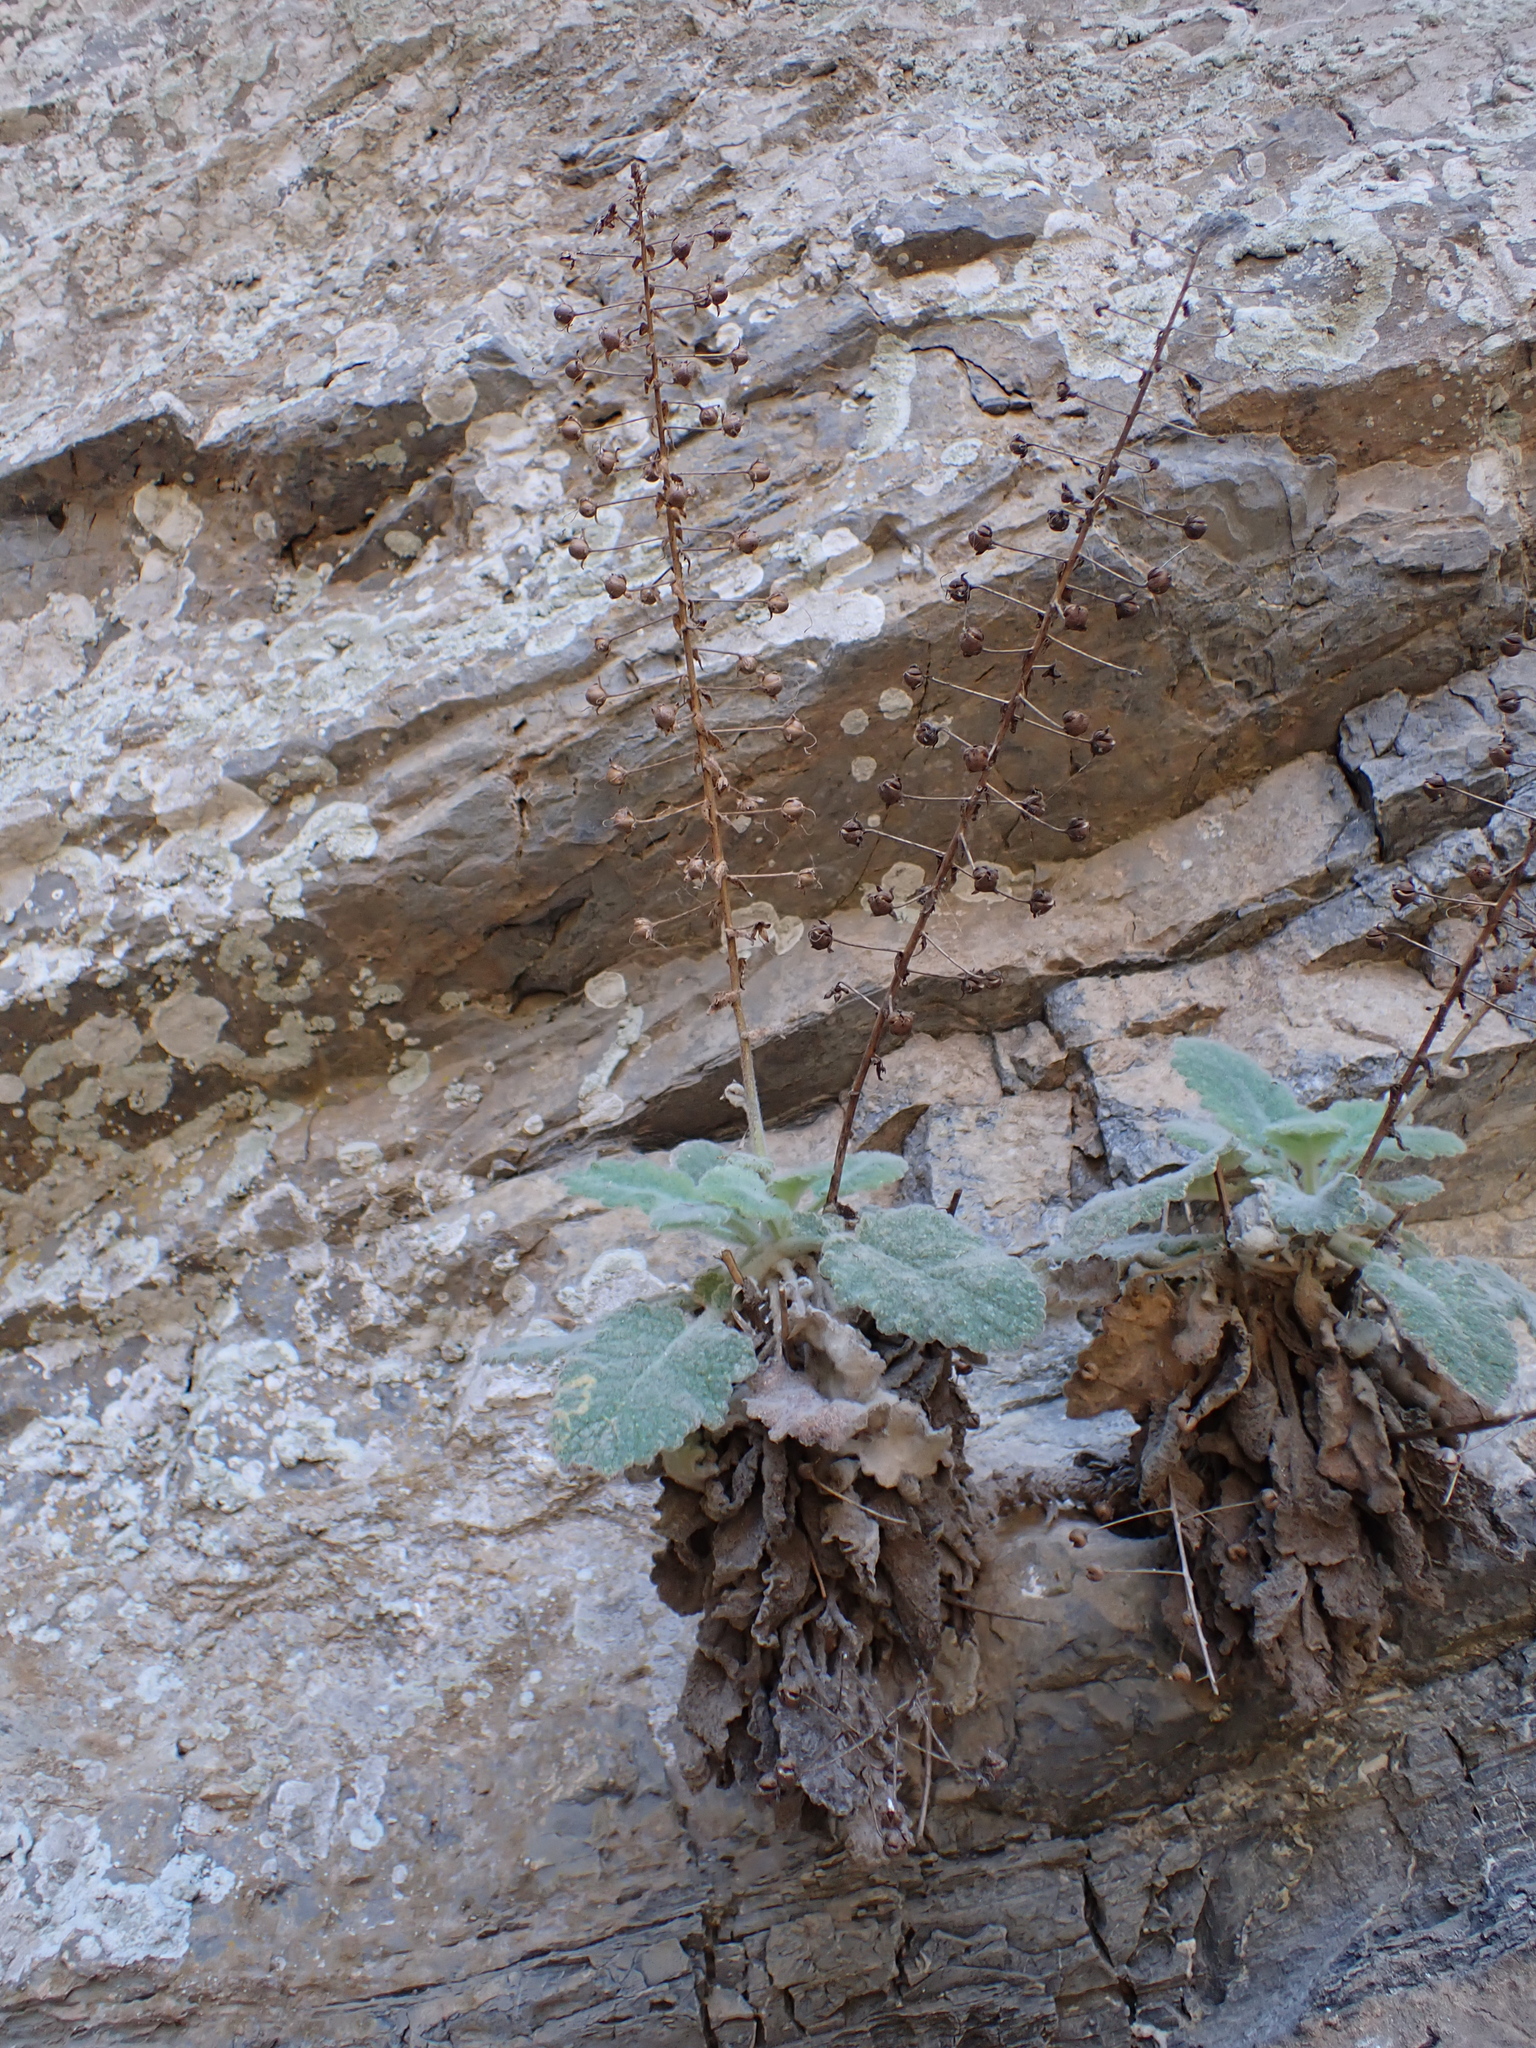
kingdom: Plantae
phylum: Tracheophyta
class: Magnoliopsida
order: Lamiales
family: Scrophulariaceae
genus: Verbascum
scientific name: Verbascum arcturus
